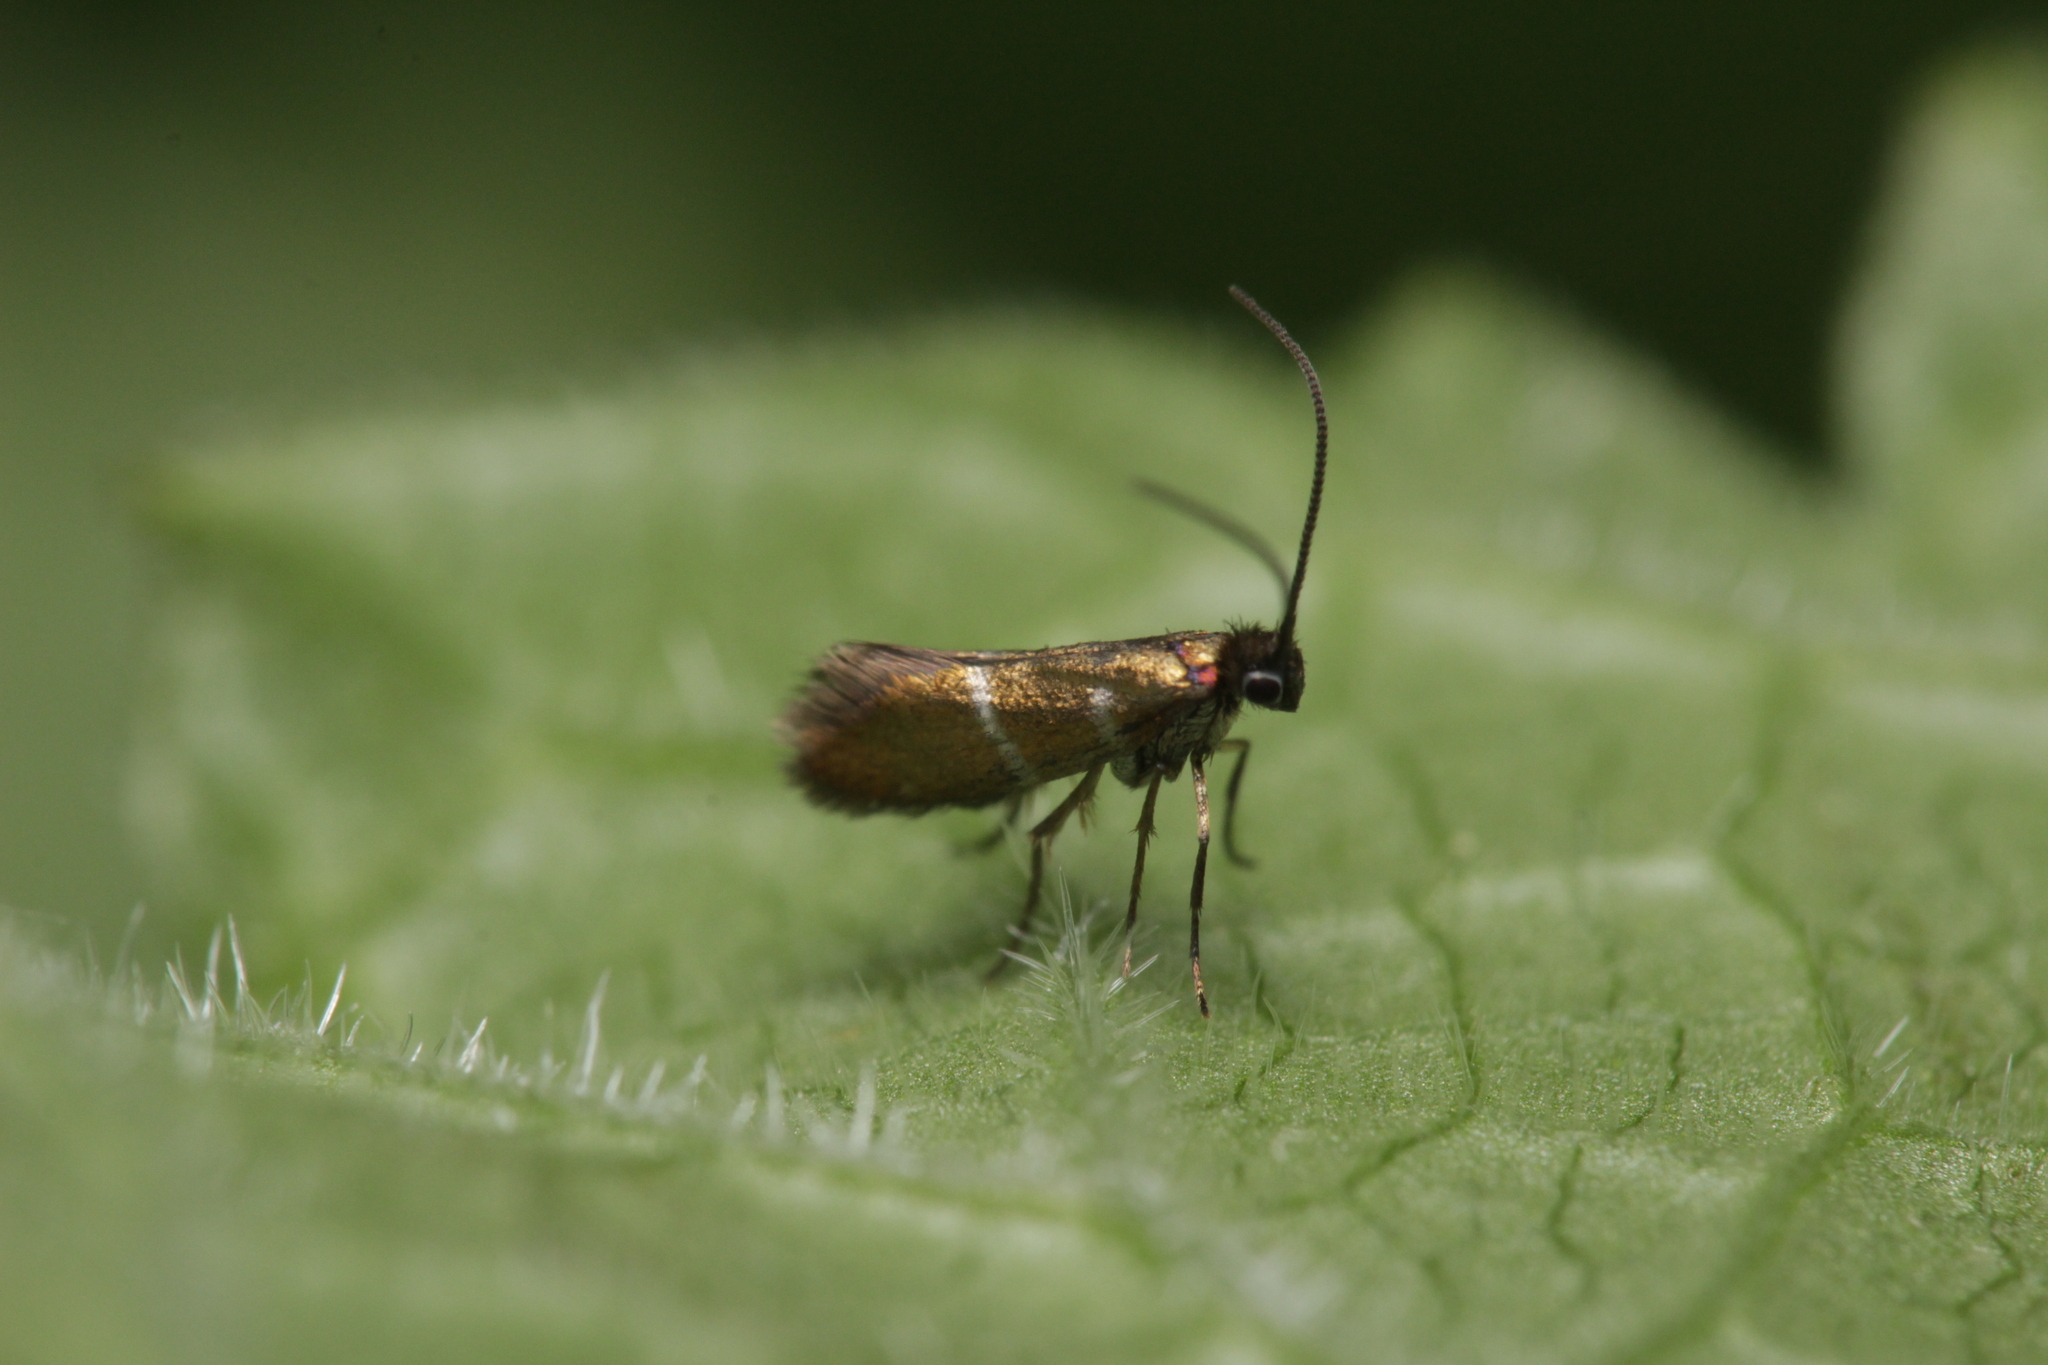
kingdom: Animalia
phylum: Arthropoda
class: Insecta
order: Lepidoptera
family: Micropterigidae
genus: Micropterix
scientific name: Micropterix aruncella
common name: White-barred gold
